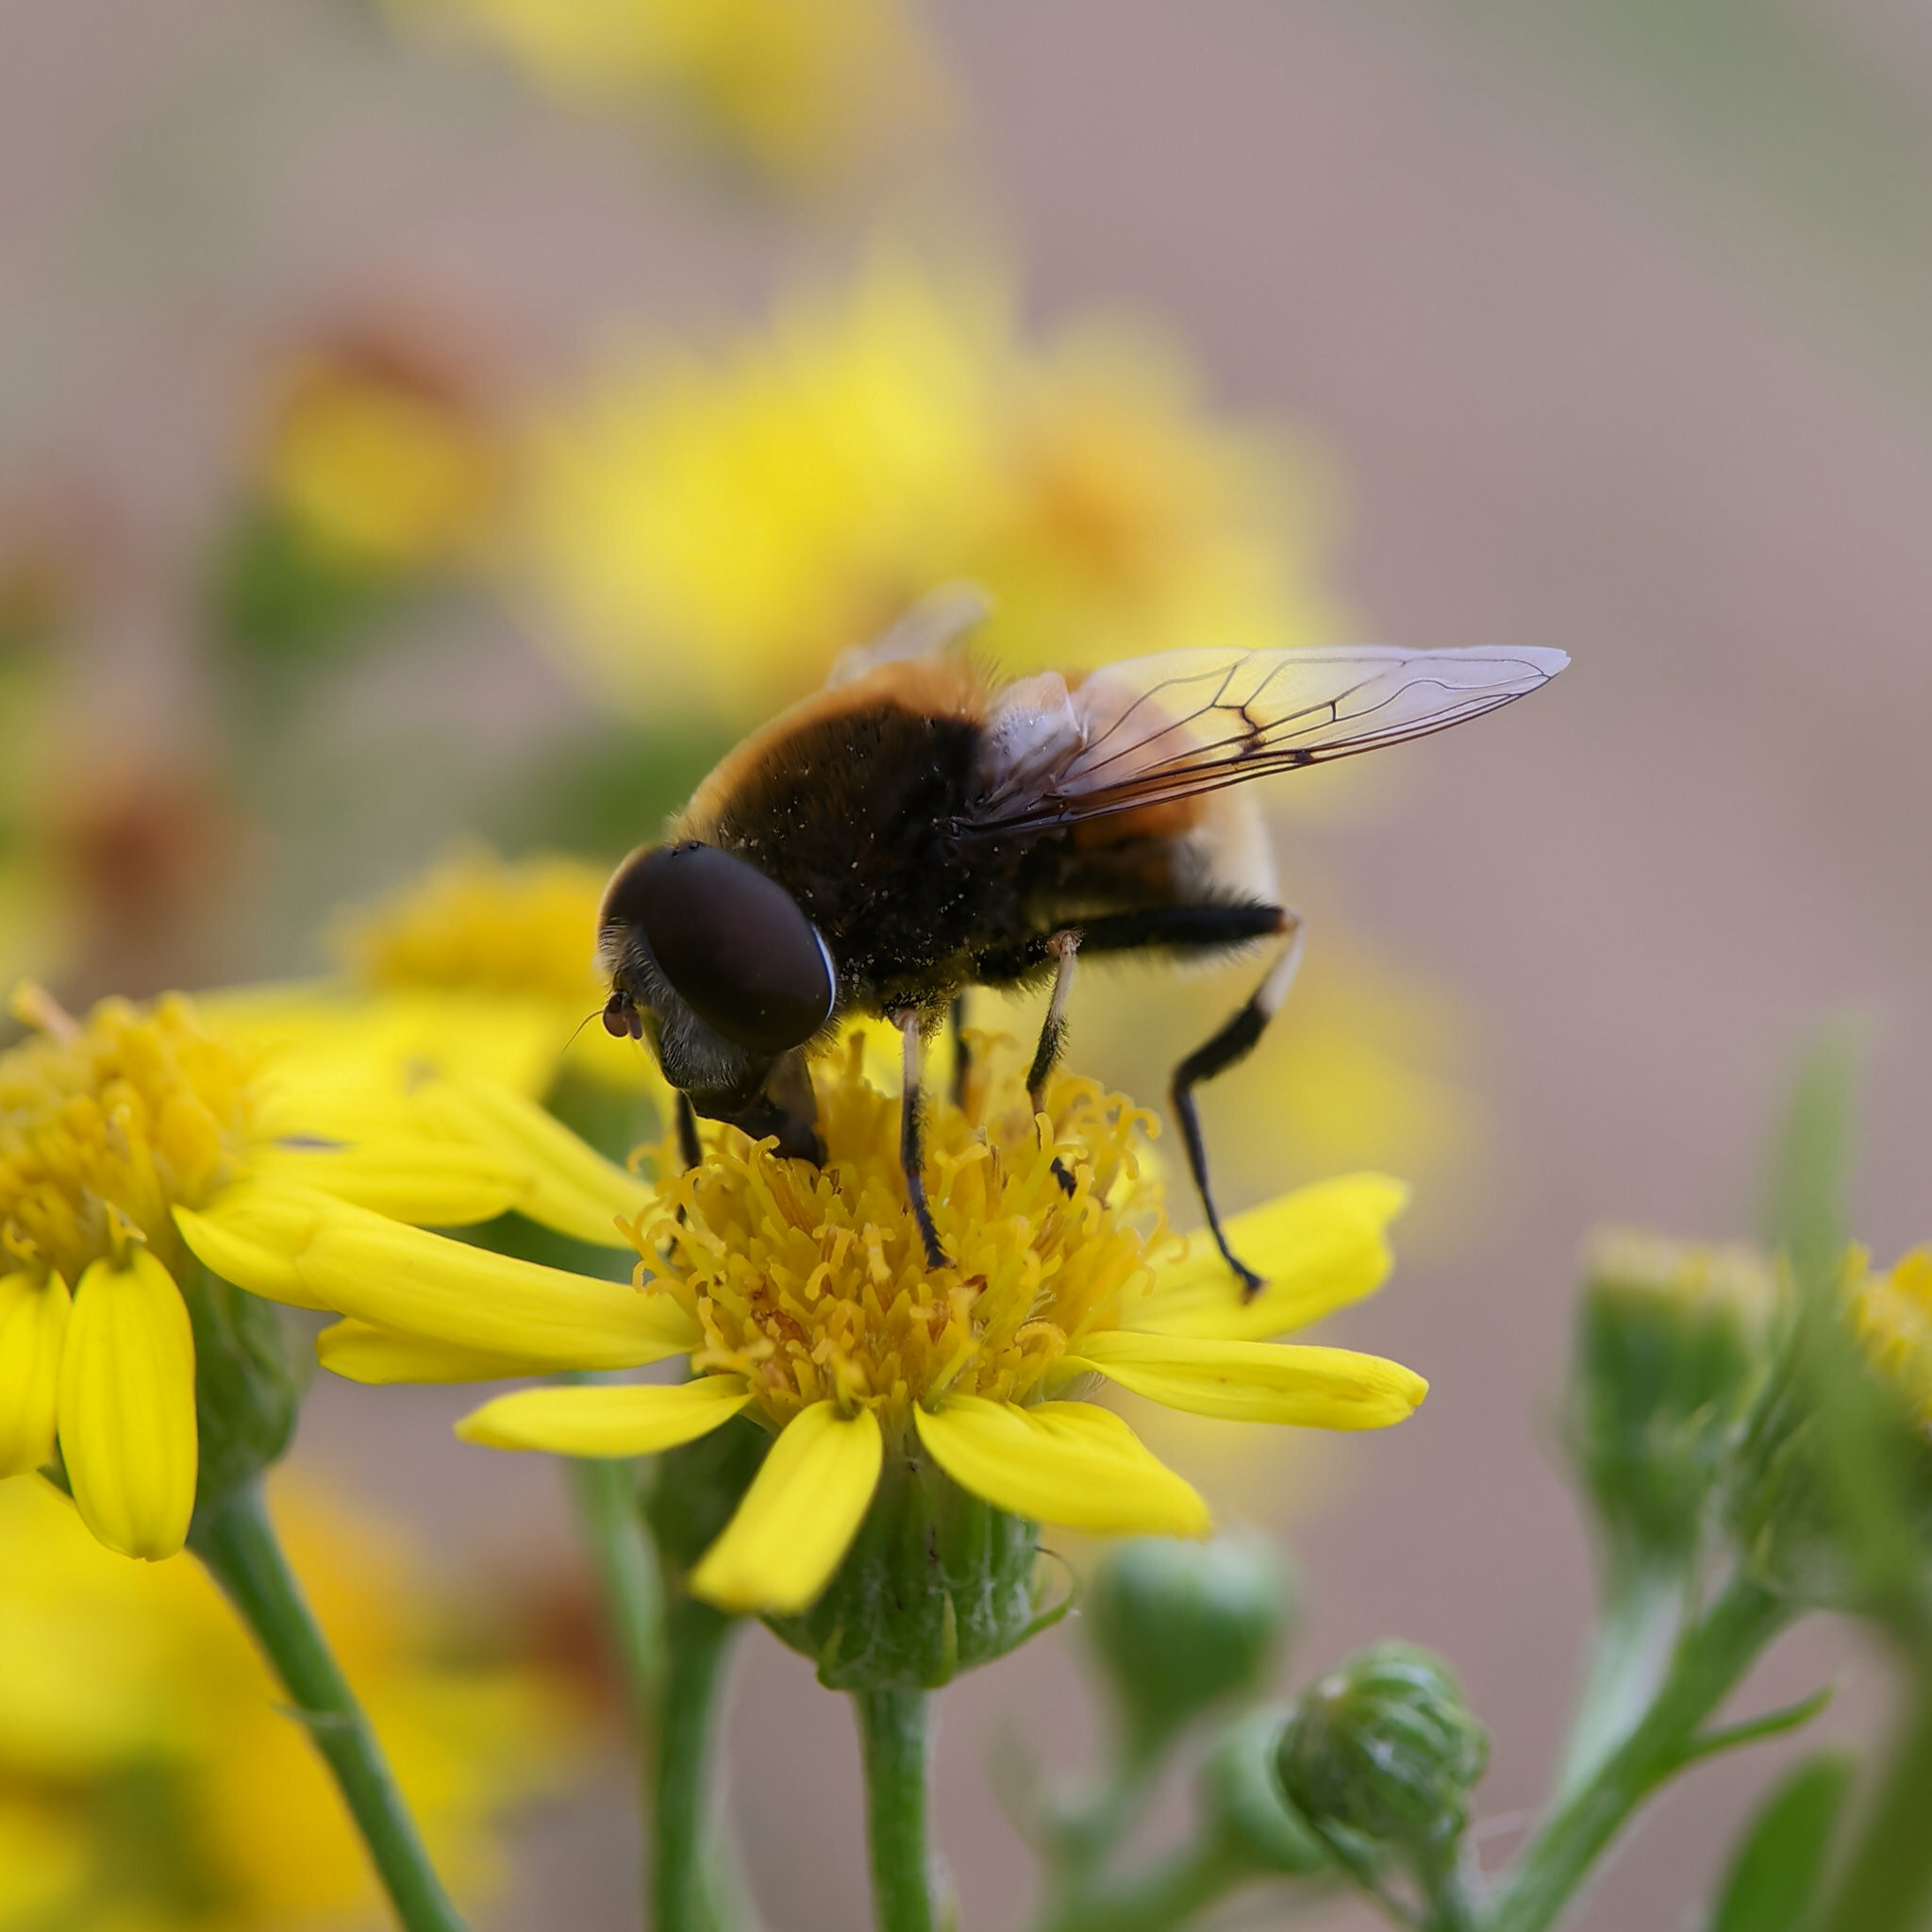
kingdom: Animalia
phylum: Arthropoda
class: Insecta
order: Diptera
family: Syrphidae
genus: Eristalis
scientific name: Eristalis intricaria
